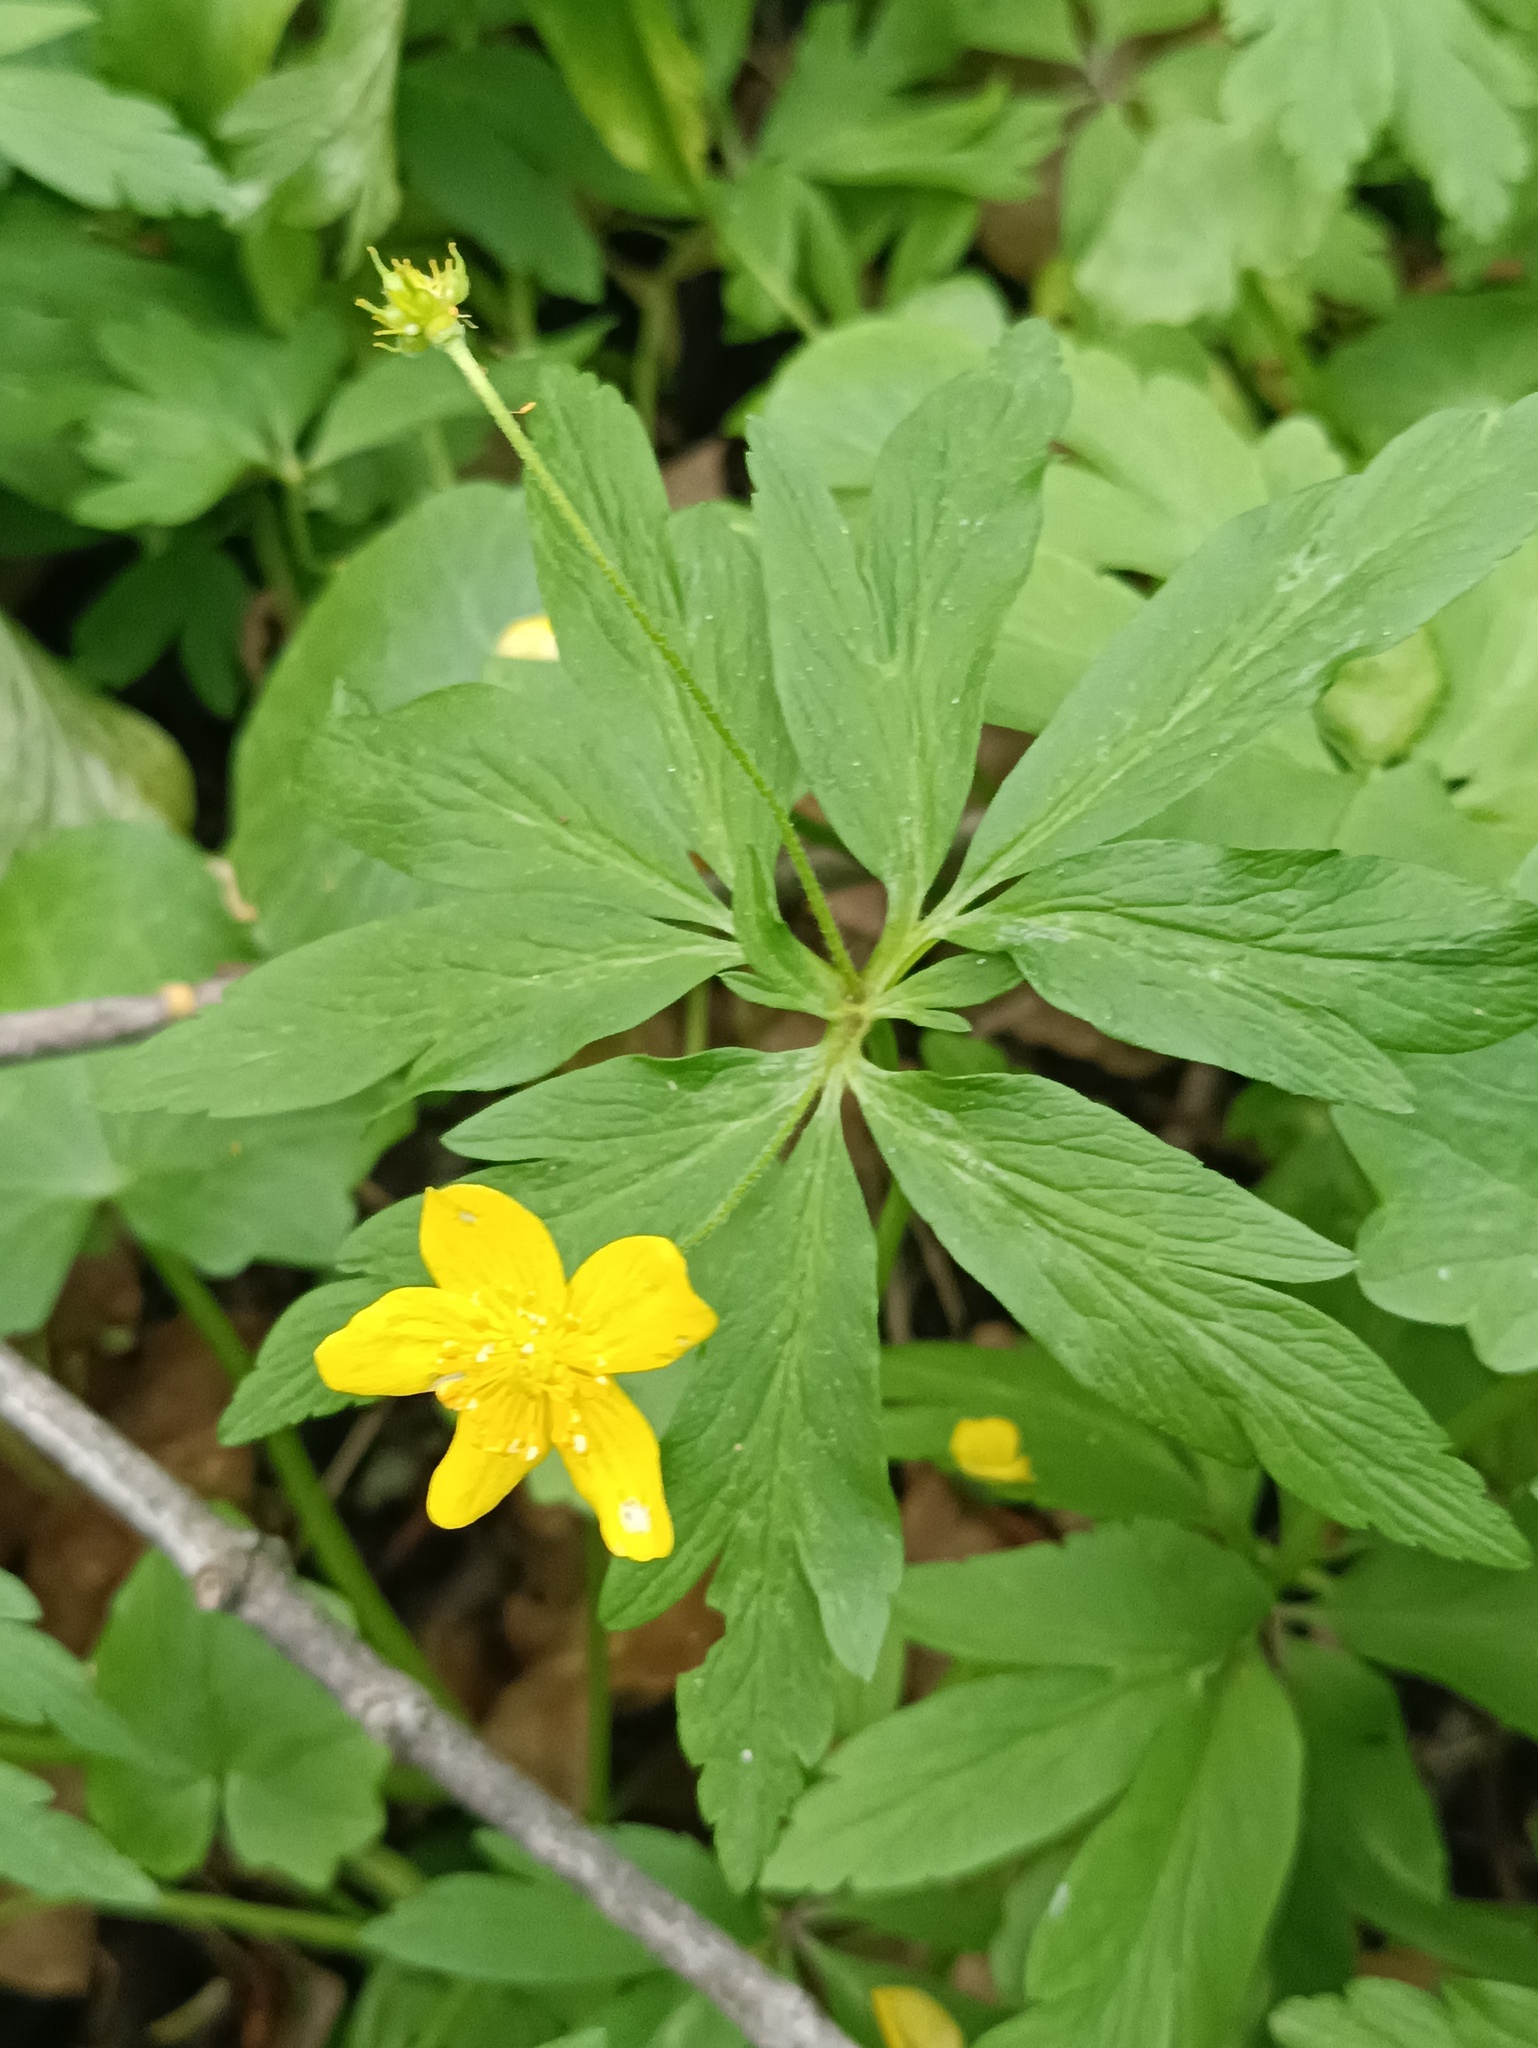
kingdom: Plantae
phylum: Tracheophyta
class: Magnoliopsida
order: Ranunculales
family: Ranunculaceae
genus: Anemone
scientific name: Anemone ranunculoides
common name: Yellow anemone
